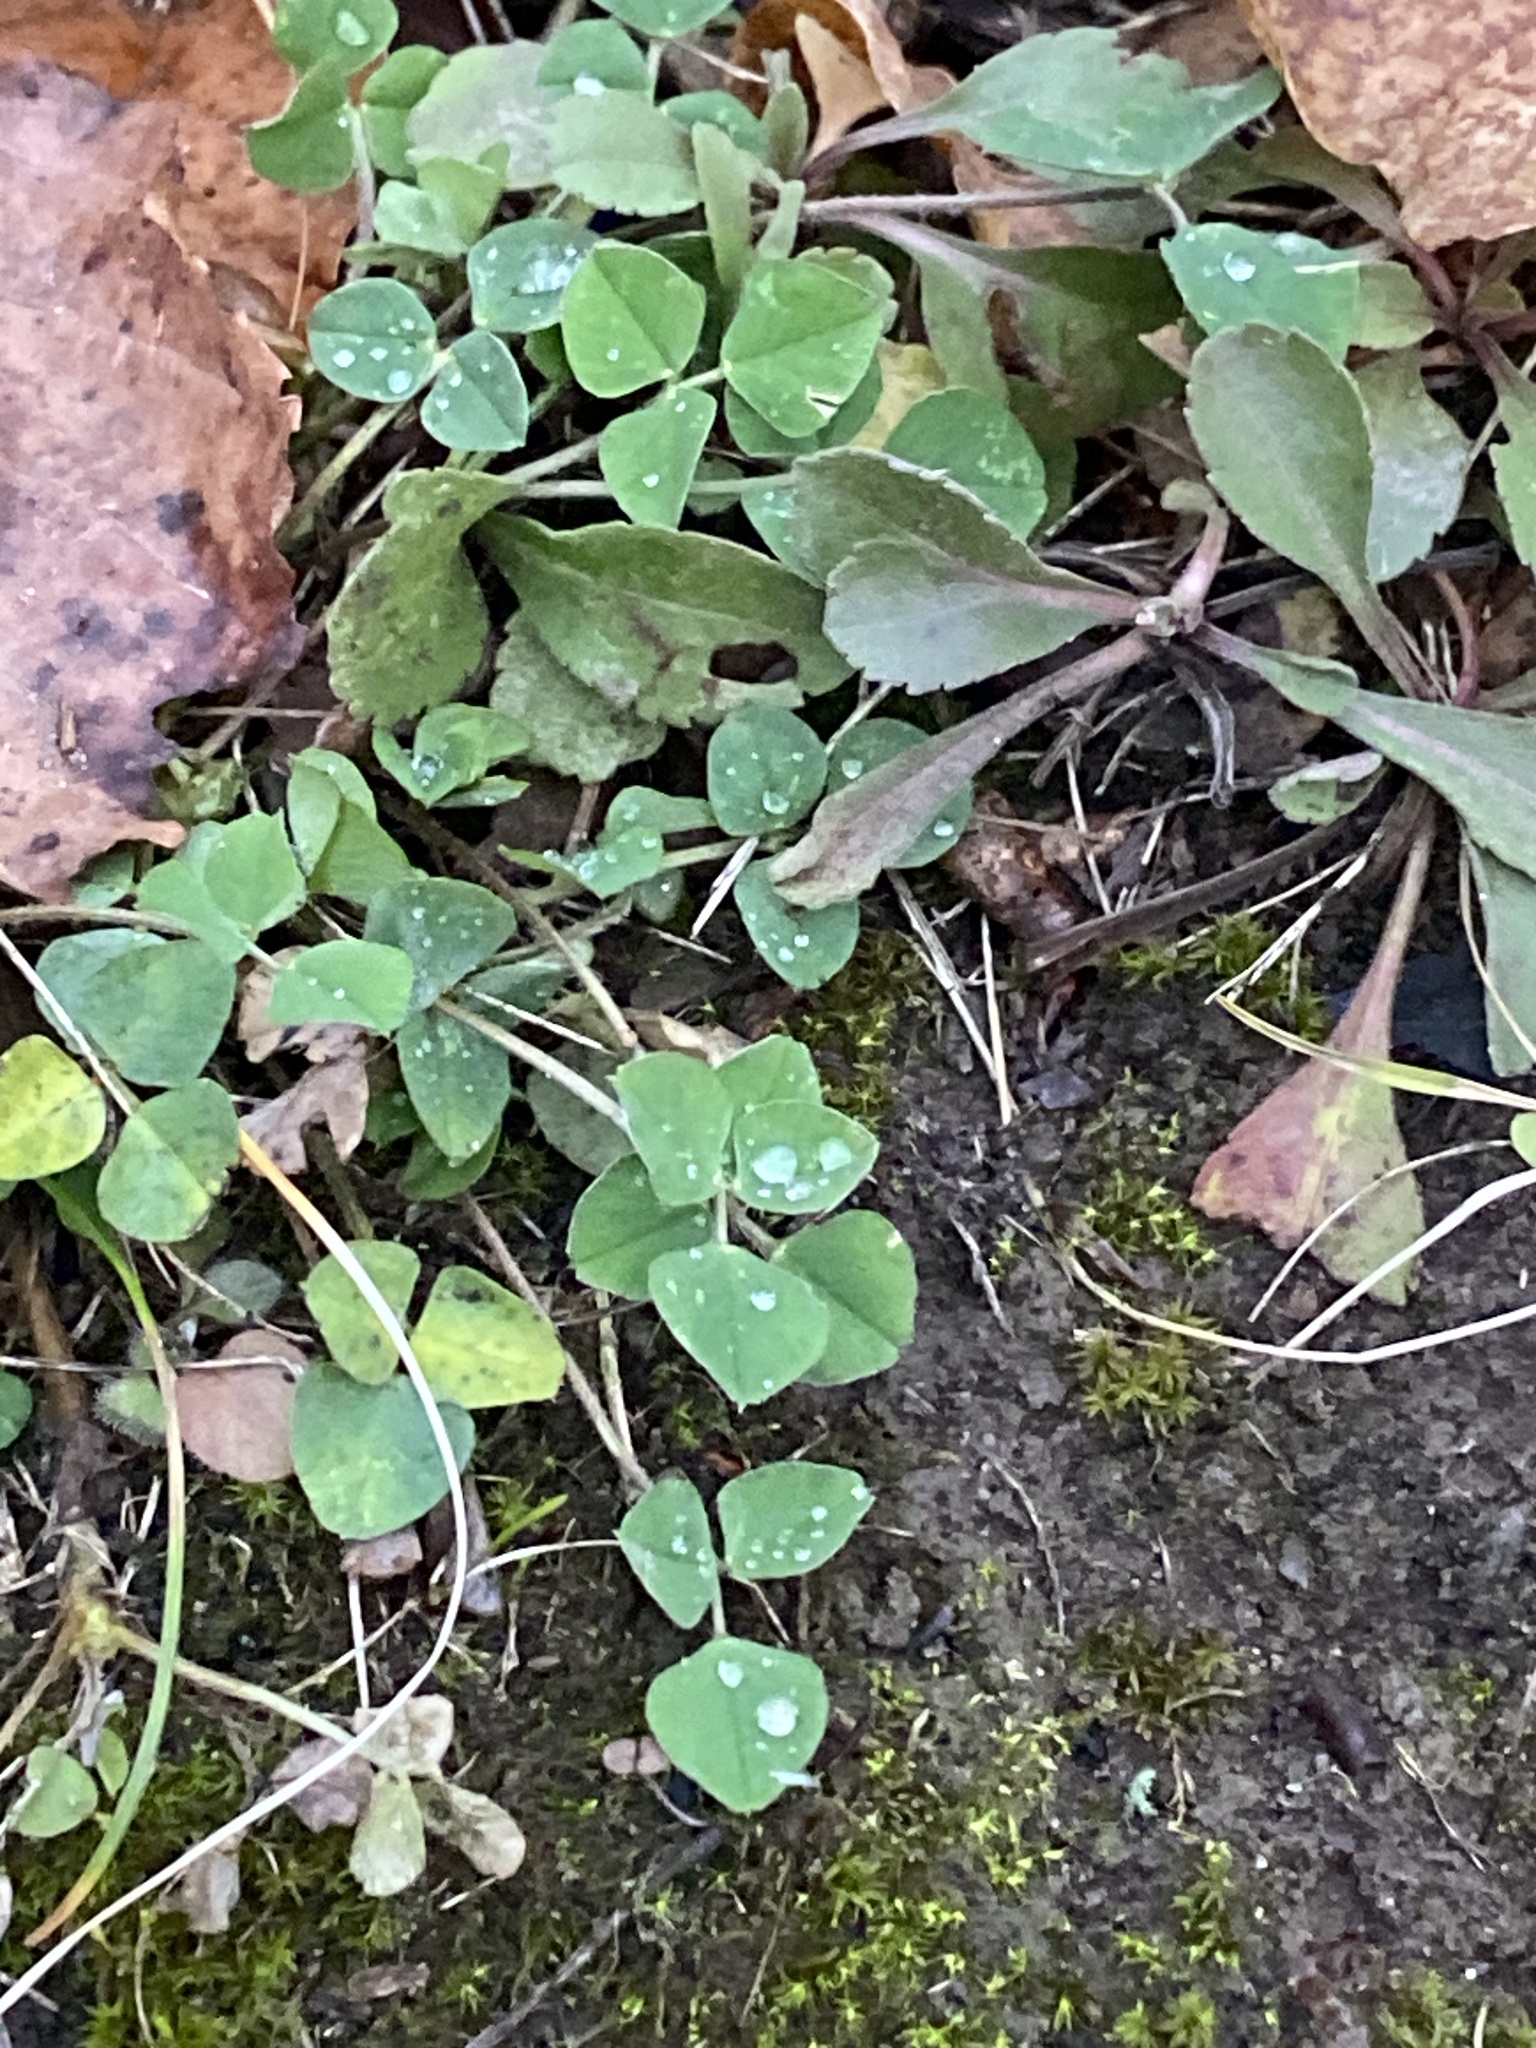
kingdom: Plantae
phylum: Tracheophyta
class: Magnoliopsida
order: Fabales
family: Fabaceae
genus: Medicago
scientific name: Medicago lupulina
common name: Black medick
